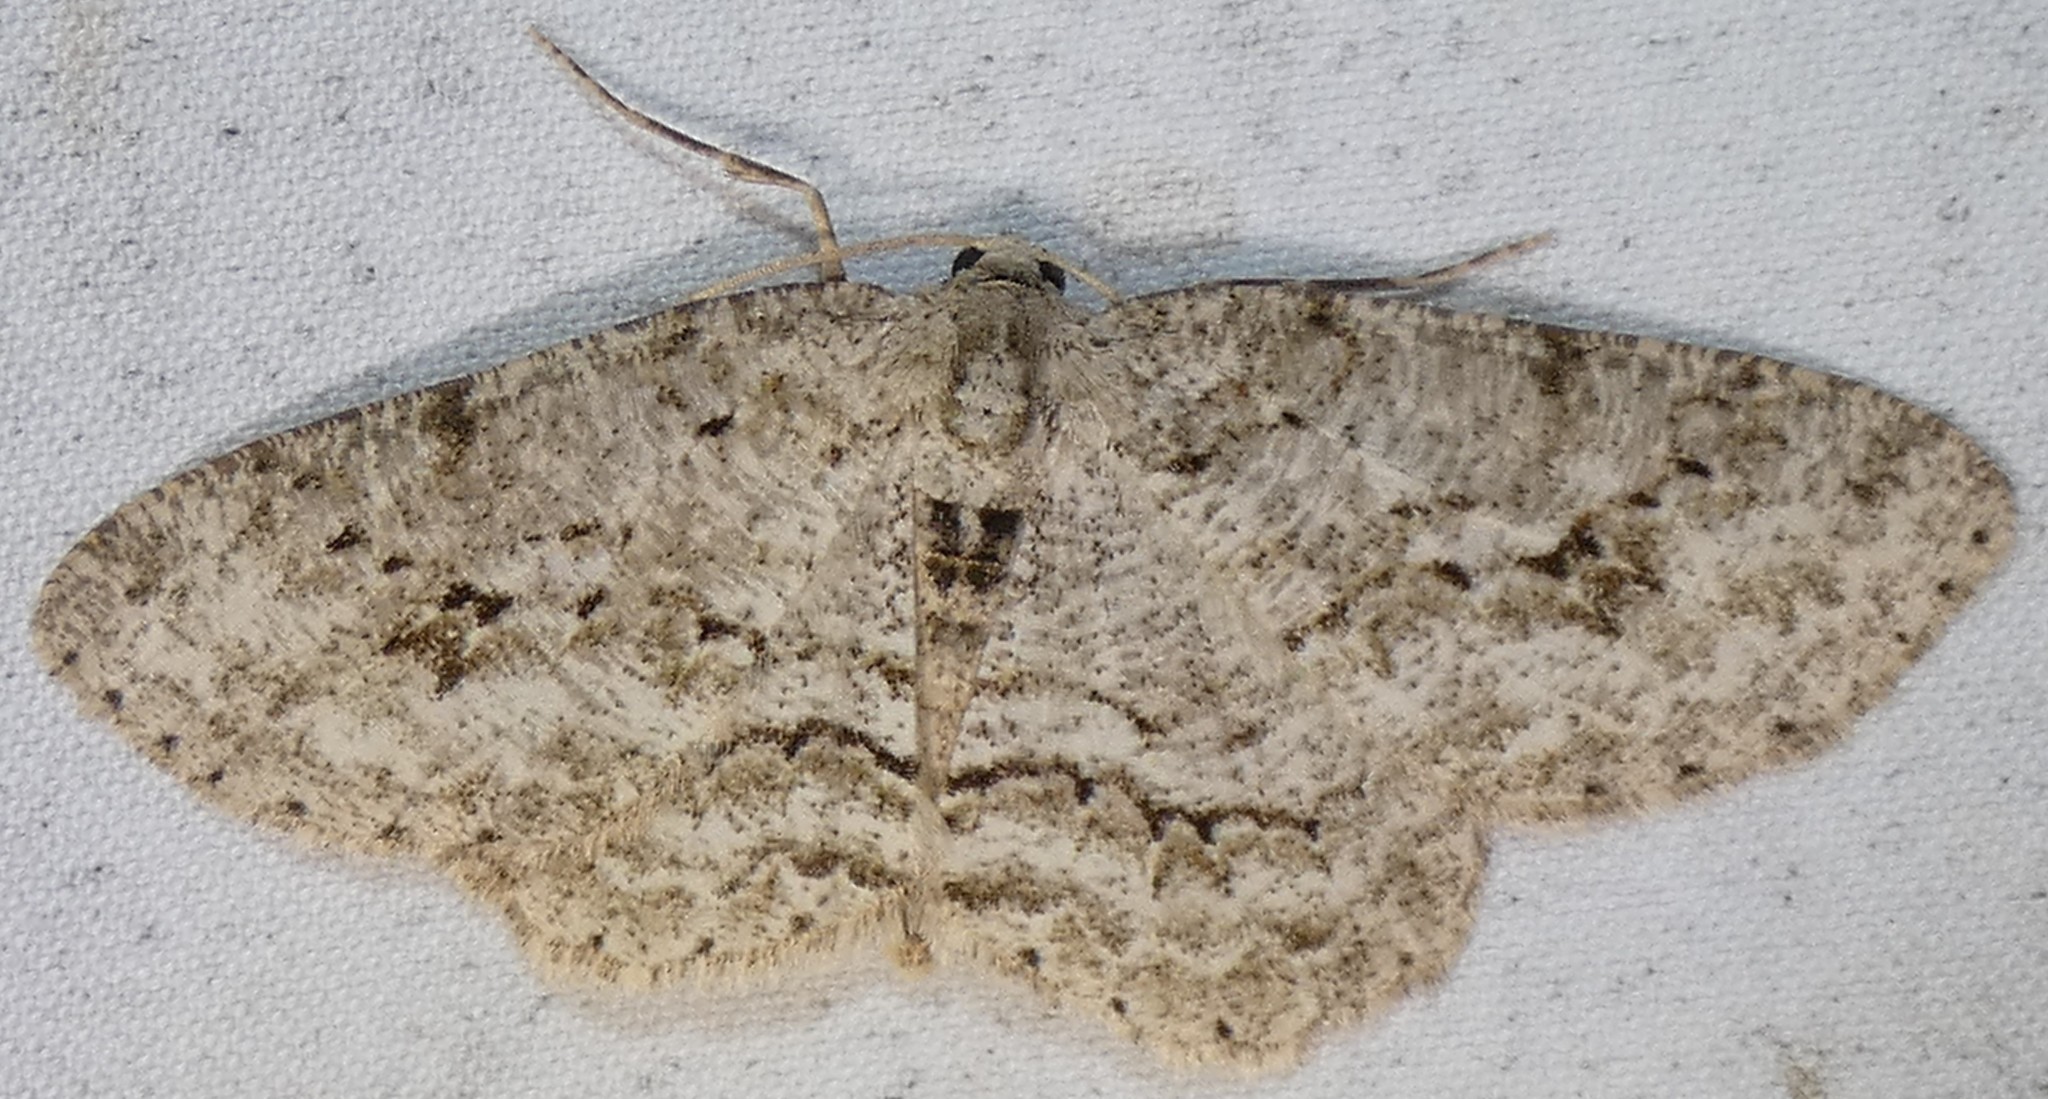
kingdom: Animalia
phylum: Arthropoda
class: Insecta
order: Lepidoptera
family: Geometridae
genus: Ectropis
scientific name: Ectropis crepuscularia
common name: Engrailed
